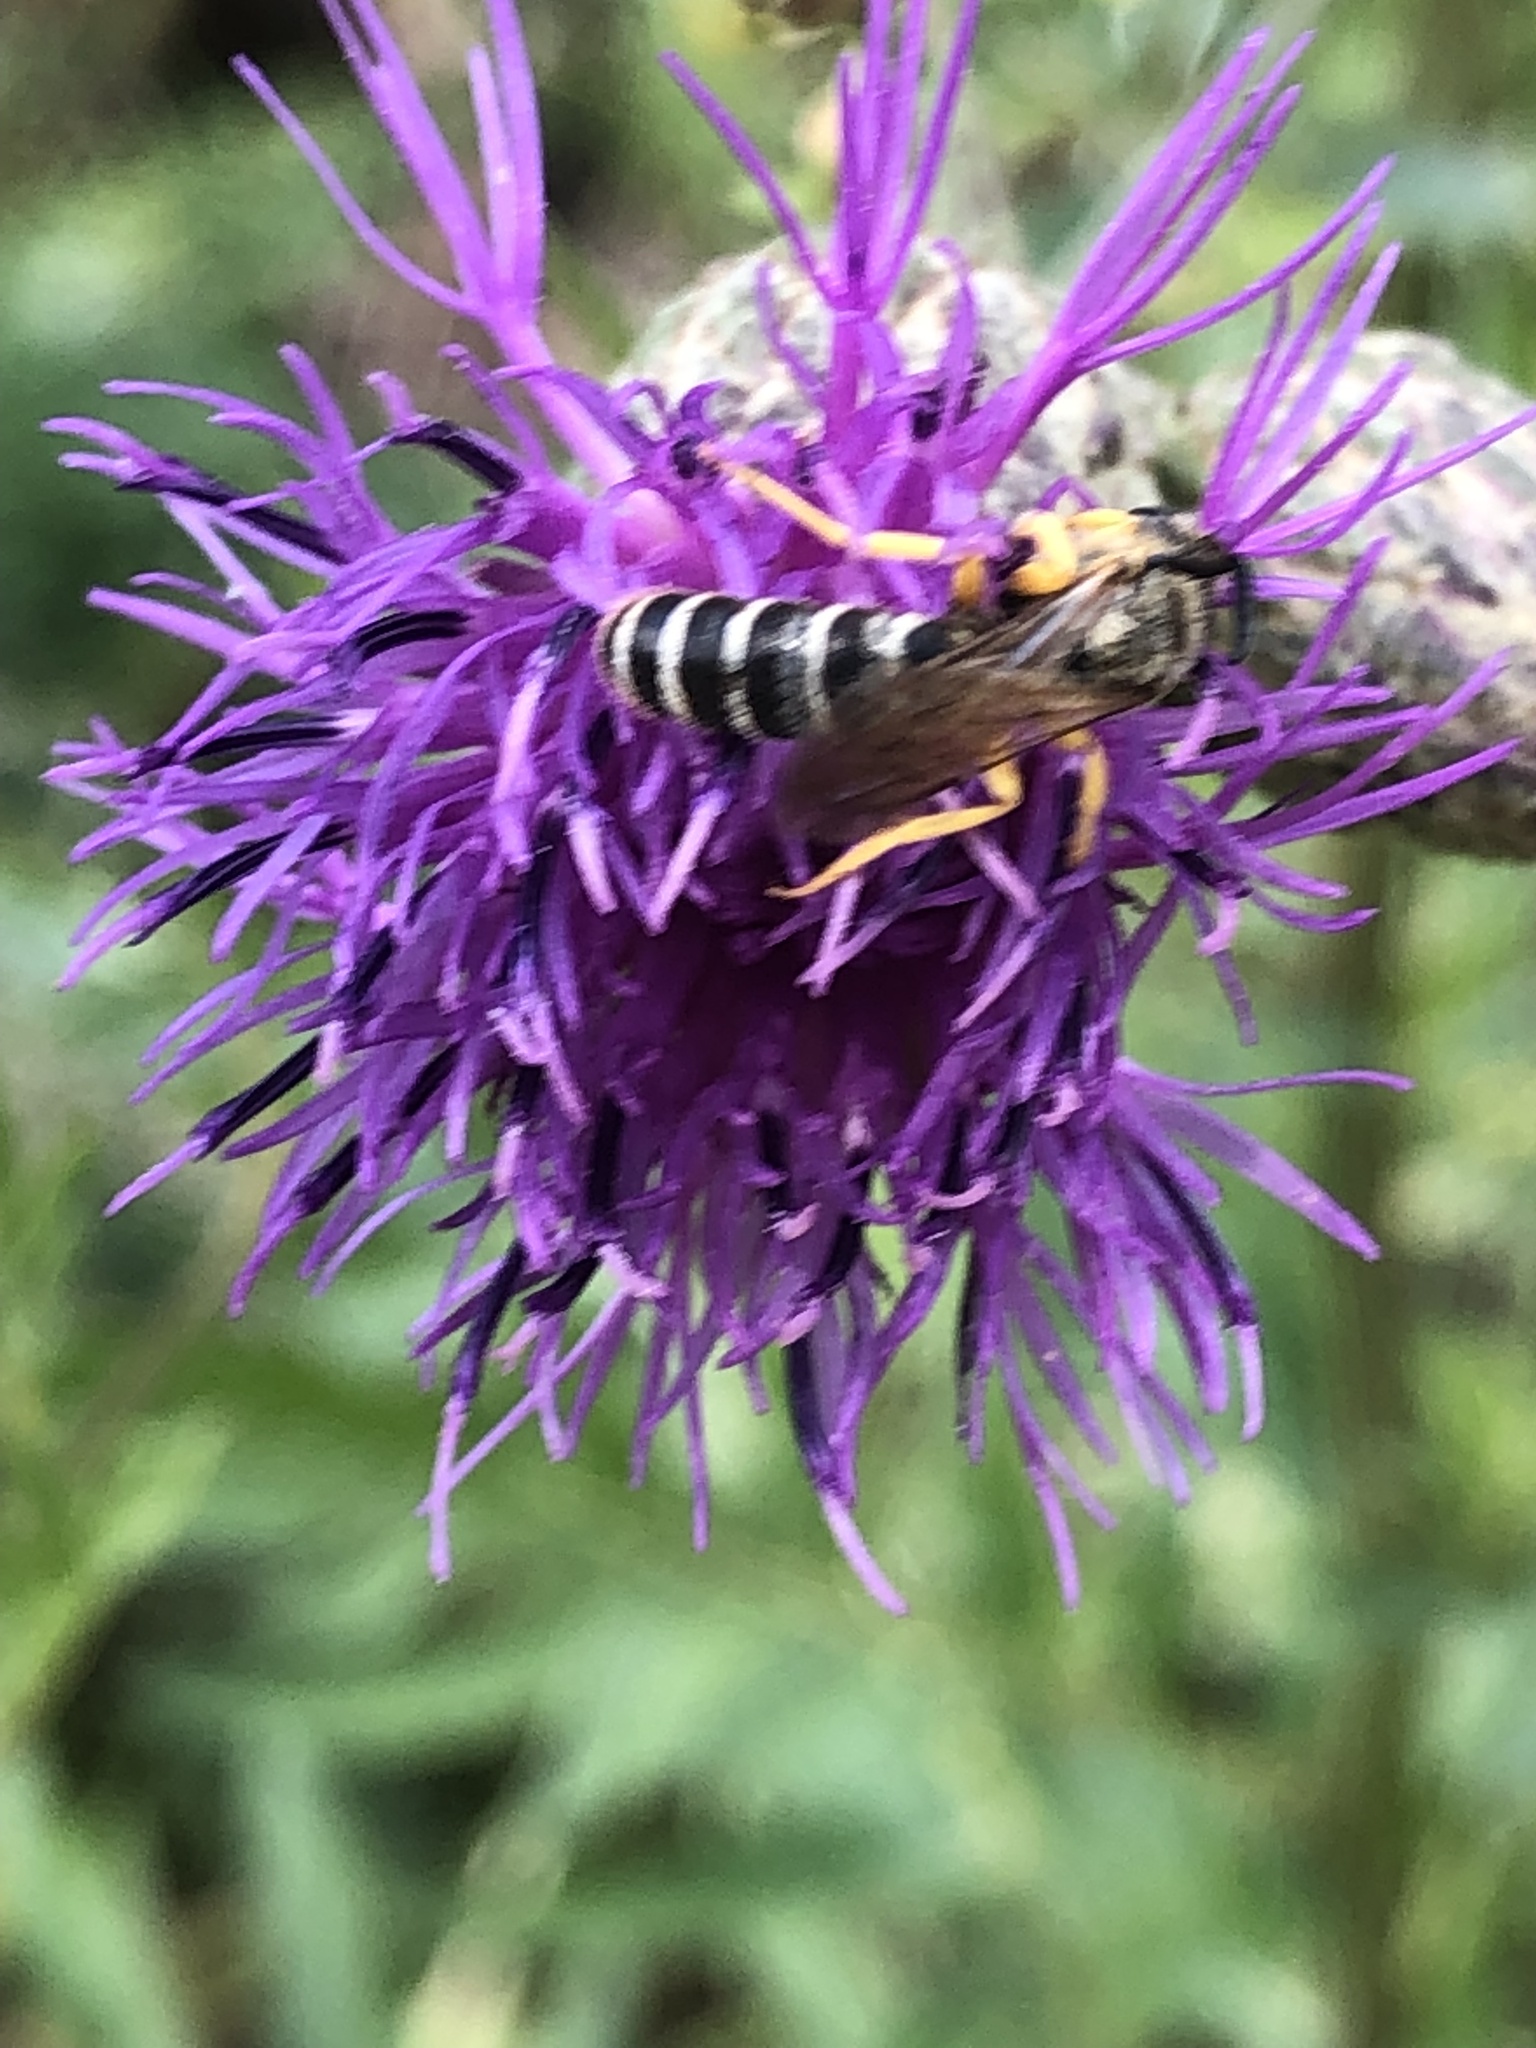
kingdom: Animalia
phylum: Arthropoda
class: Insecta
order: Hymenoptera
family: Halictidae
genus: Halictus
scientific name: Halictus scabiosae
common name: Great banded furrow bee
